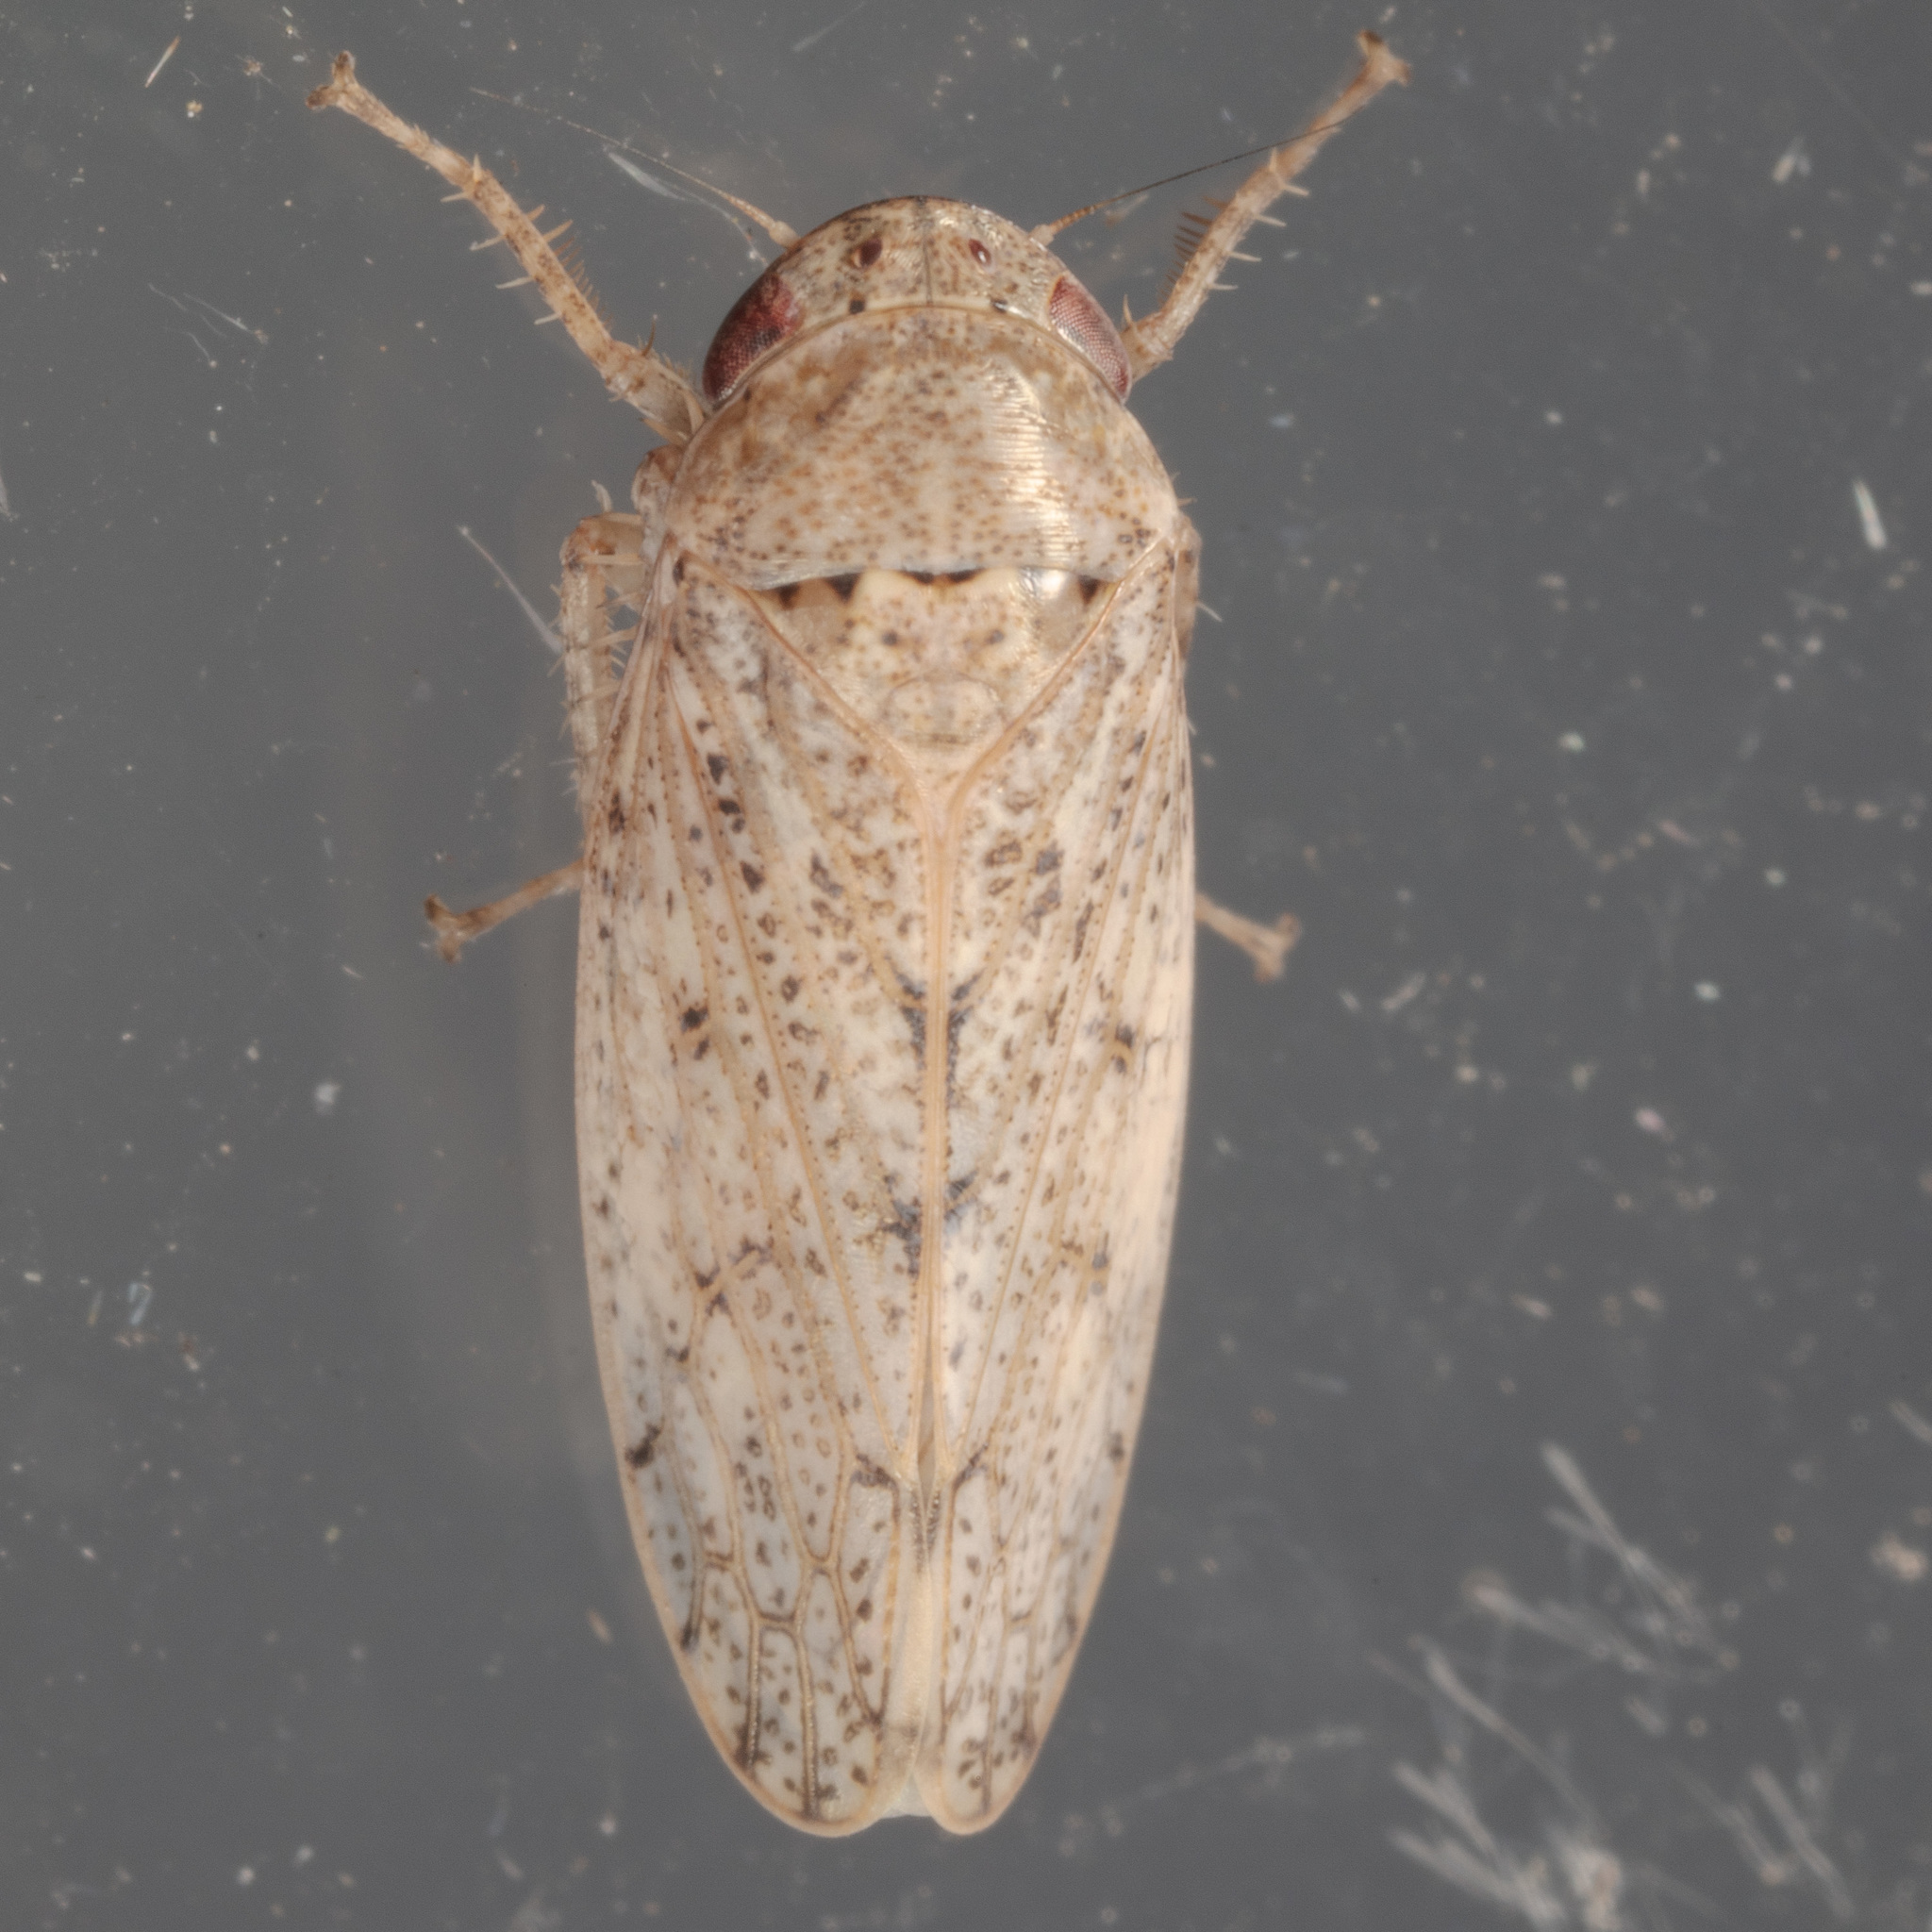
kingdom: Animalia
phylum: Arthropoda
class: Insecta
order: Hemiptera
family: Cicadellidae
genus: Curtara
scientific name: Curtara insularis
